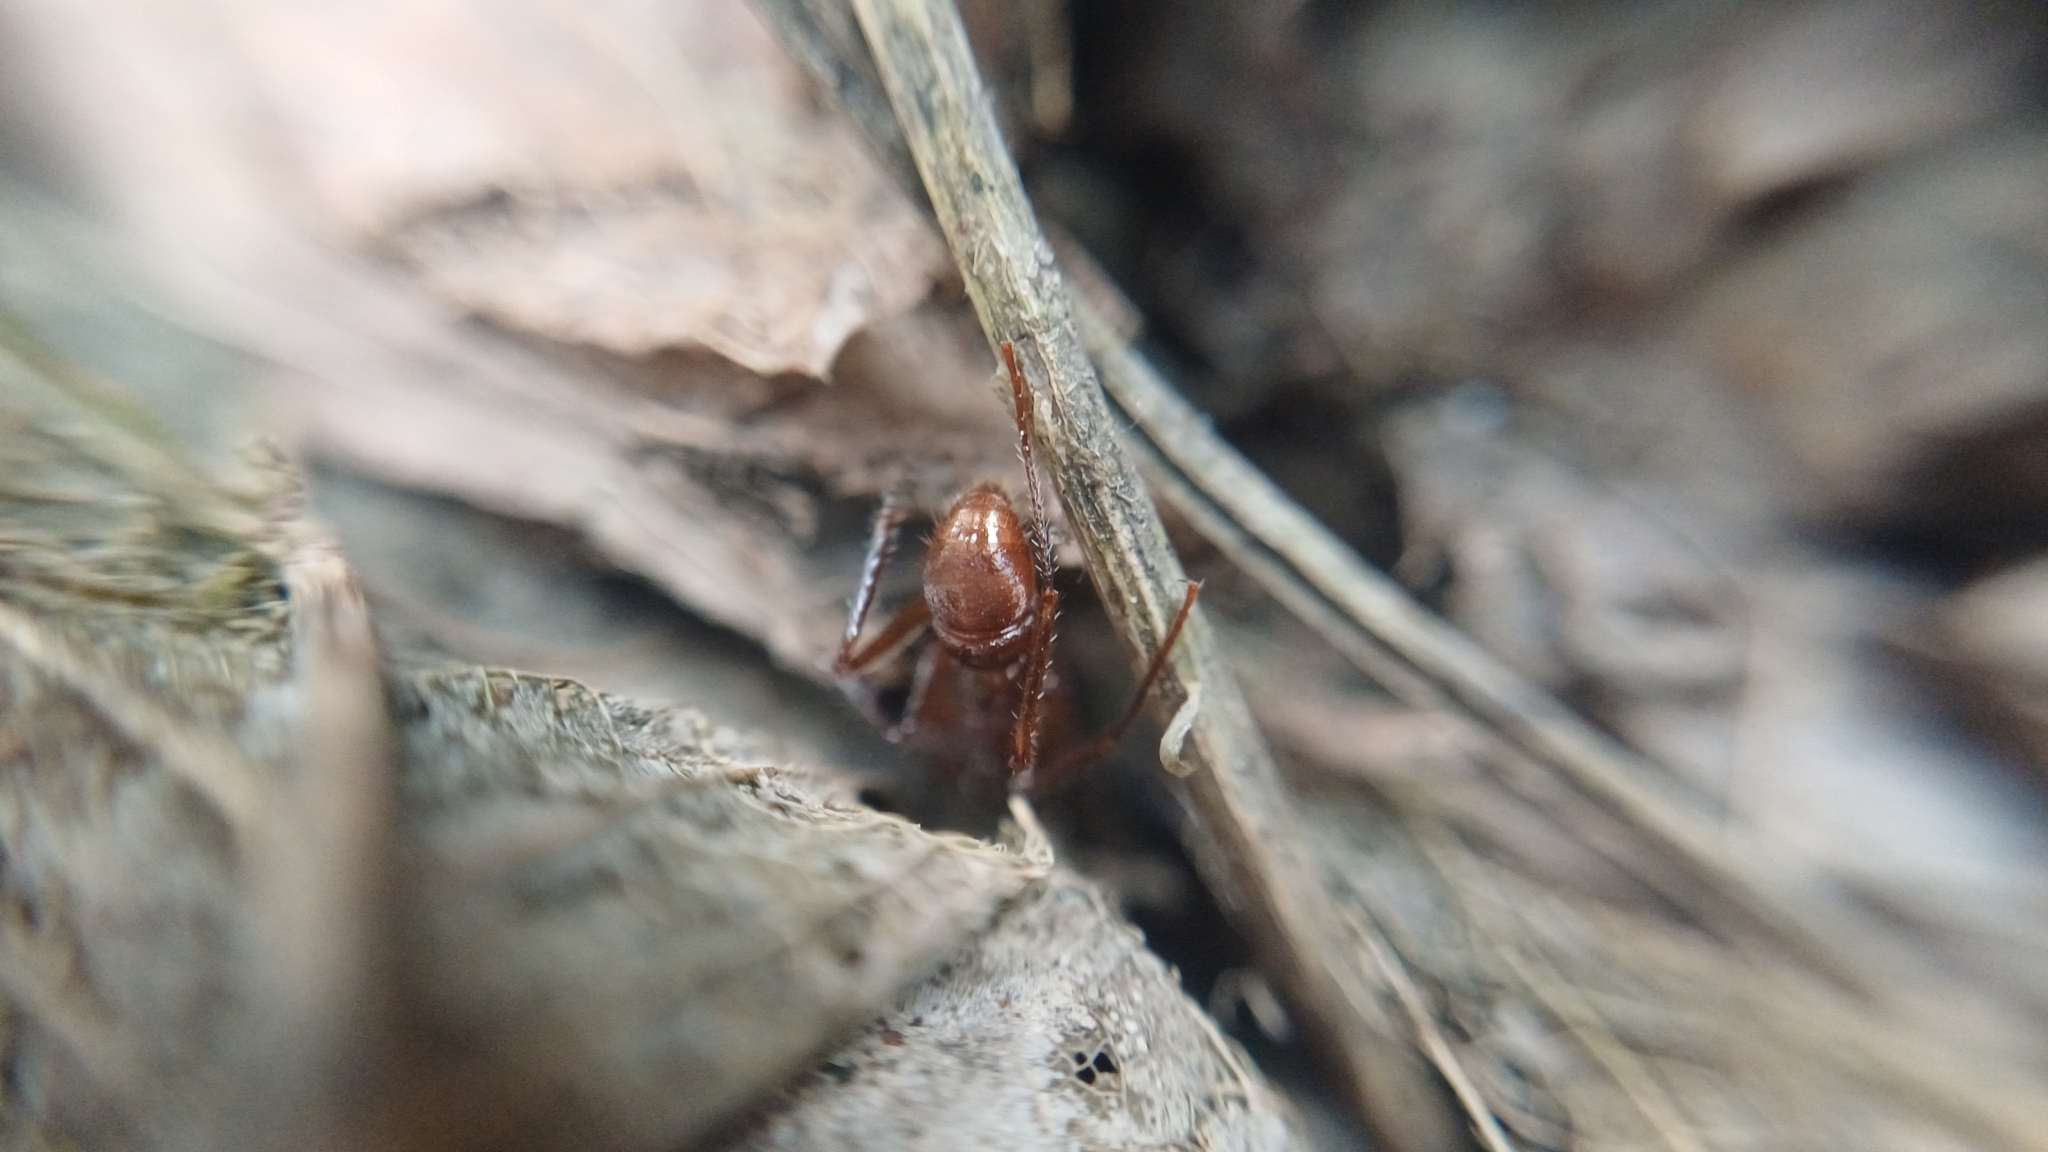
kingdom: Animalia
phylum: Arthropoda
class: Insecta
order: Hymenoptera
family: Formicidae
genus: Ectatomma
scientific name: Ectatomma tuberculatum
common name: Ant
